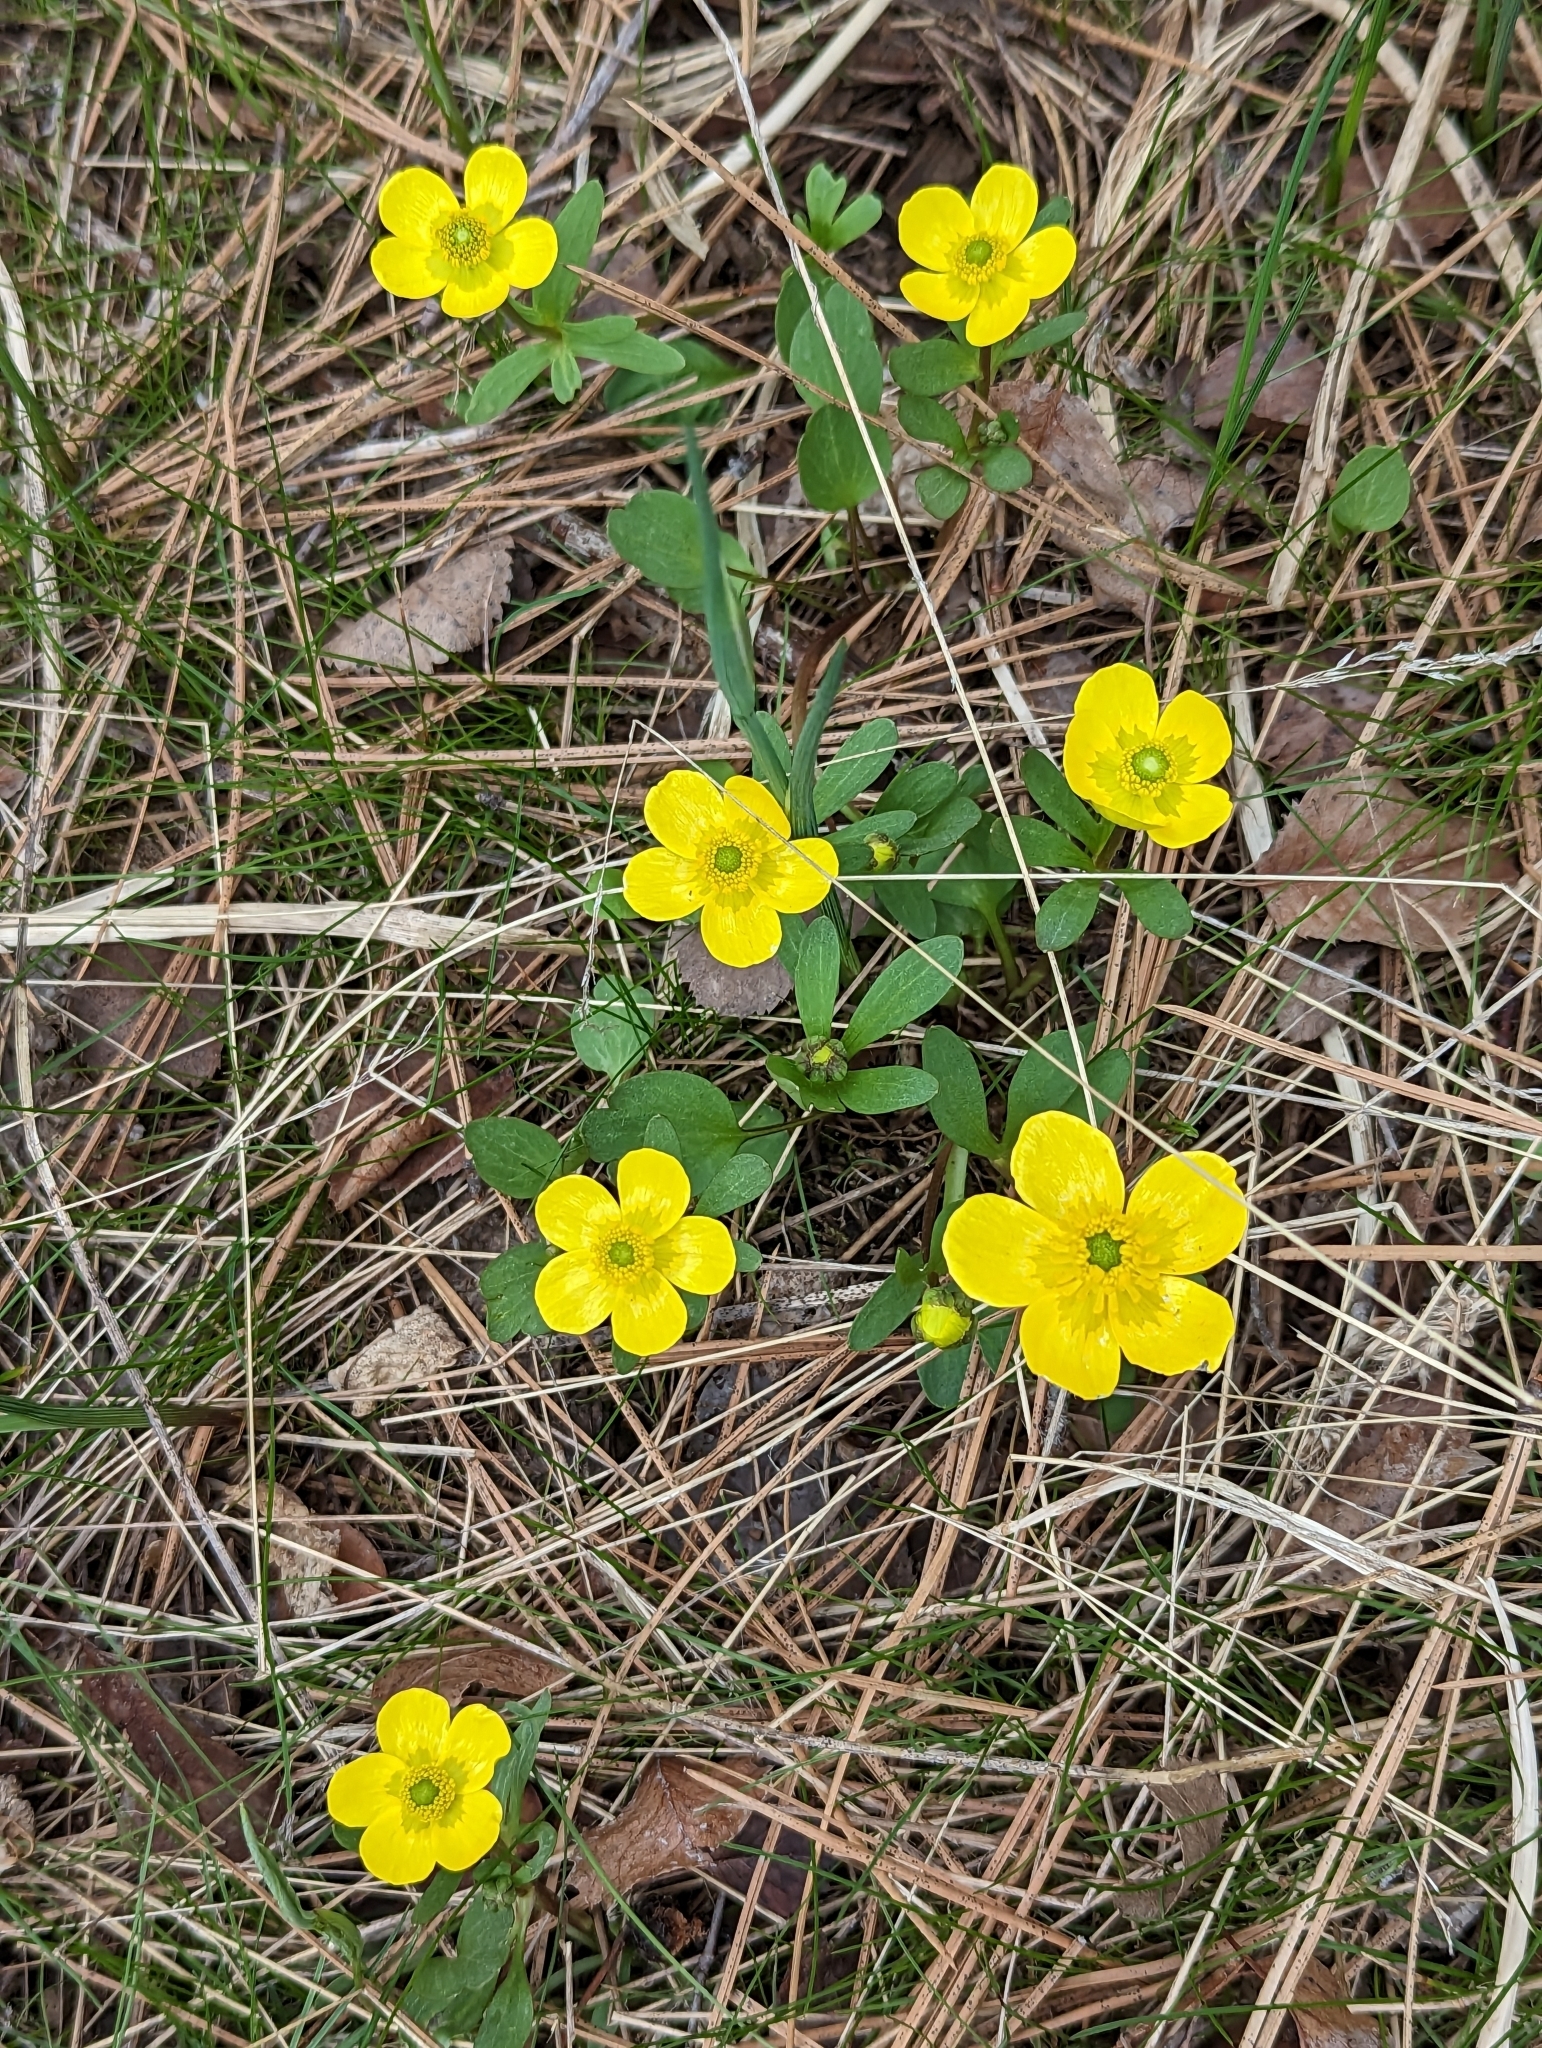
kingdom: Plantae
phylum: Tracheophyta
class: Magnoliopsida
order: Ranunculales
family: Ranunculaceae
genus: Ranunculus
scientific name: Ranunculus glaberrimus
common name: Sagebrush buttercup
